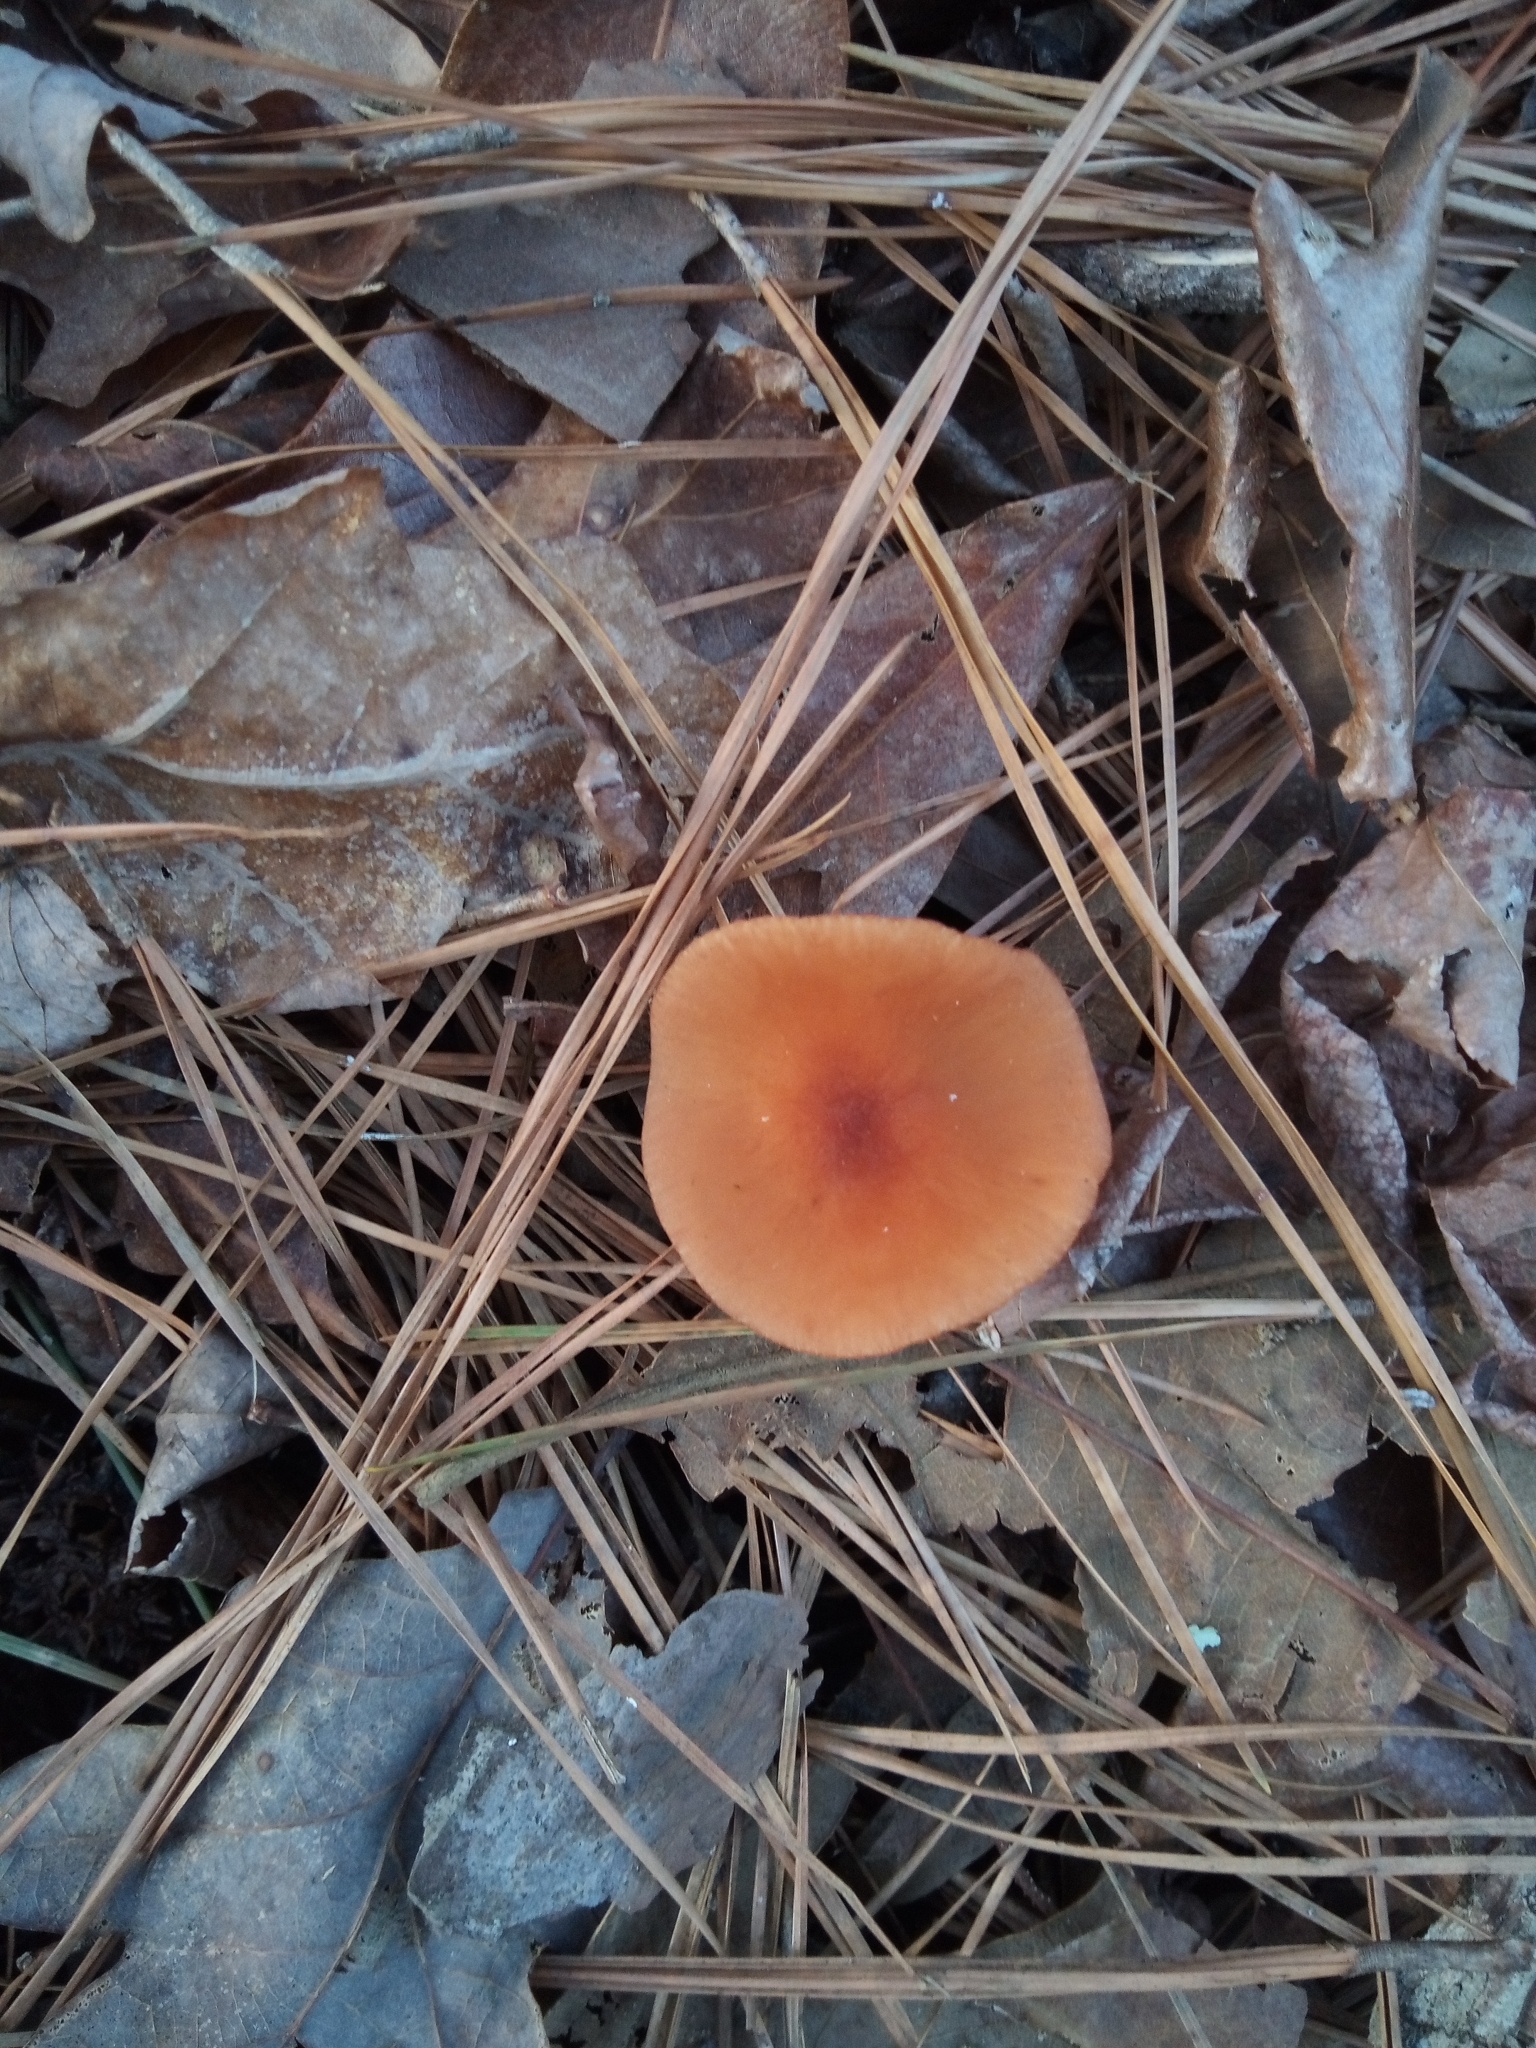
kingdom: Fungi
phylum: Basidiomycota
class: Agaricomycetes
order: Agaricales
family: Hydnangiaceae
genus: Laccaria
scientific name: Laccaria laccata
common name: Deceiver
